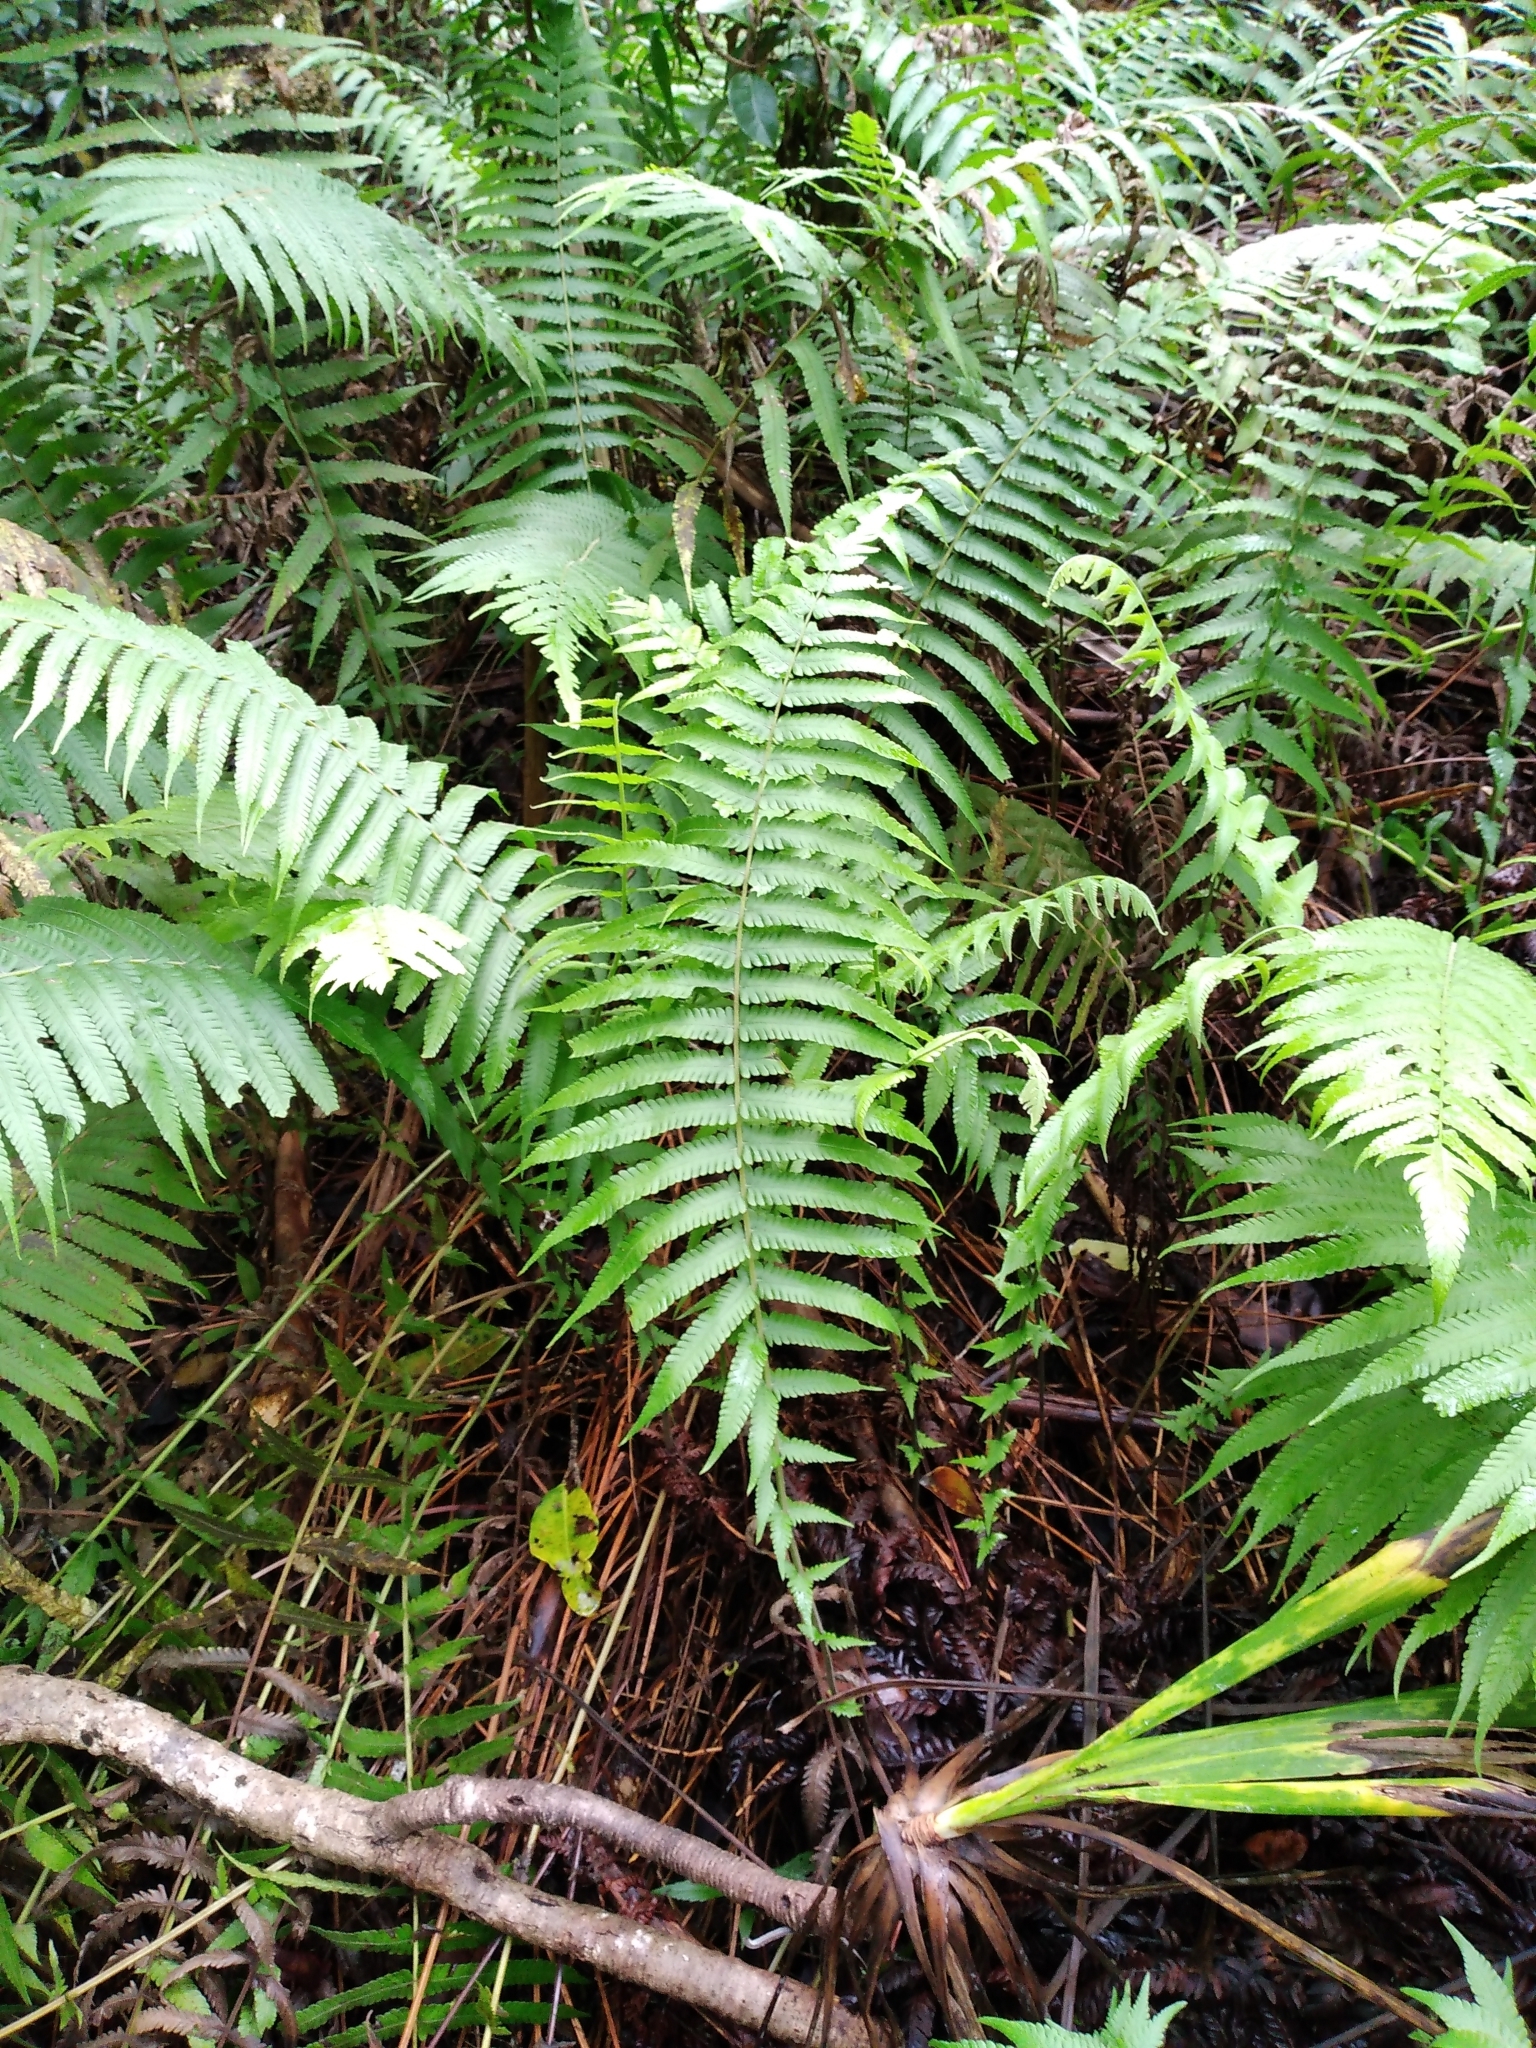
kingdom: Plantae
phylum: Tracheophyta
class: Polypodiopsida
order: Polypodiales
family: Thelypteridaceae
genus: Christella
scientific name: Christella dentata
